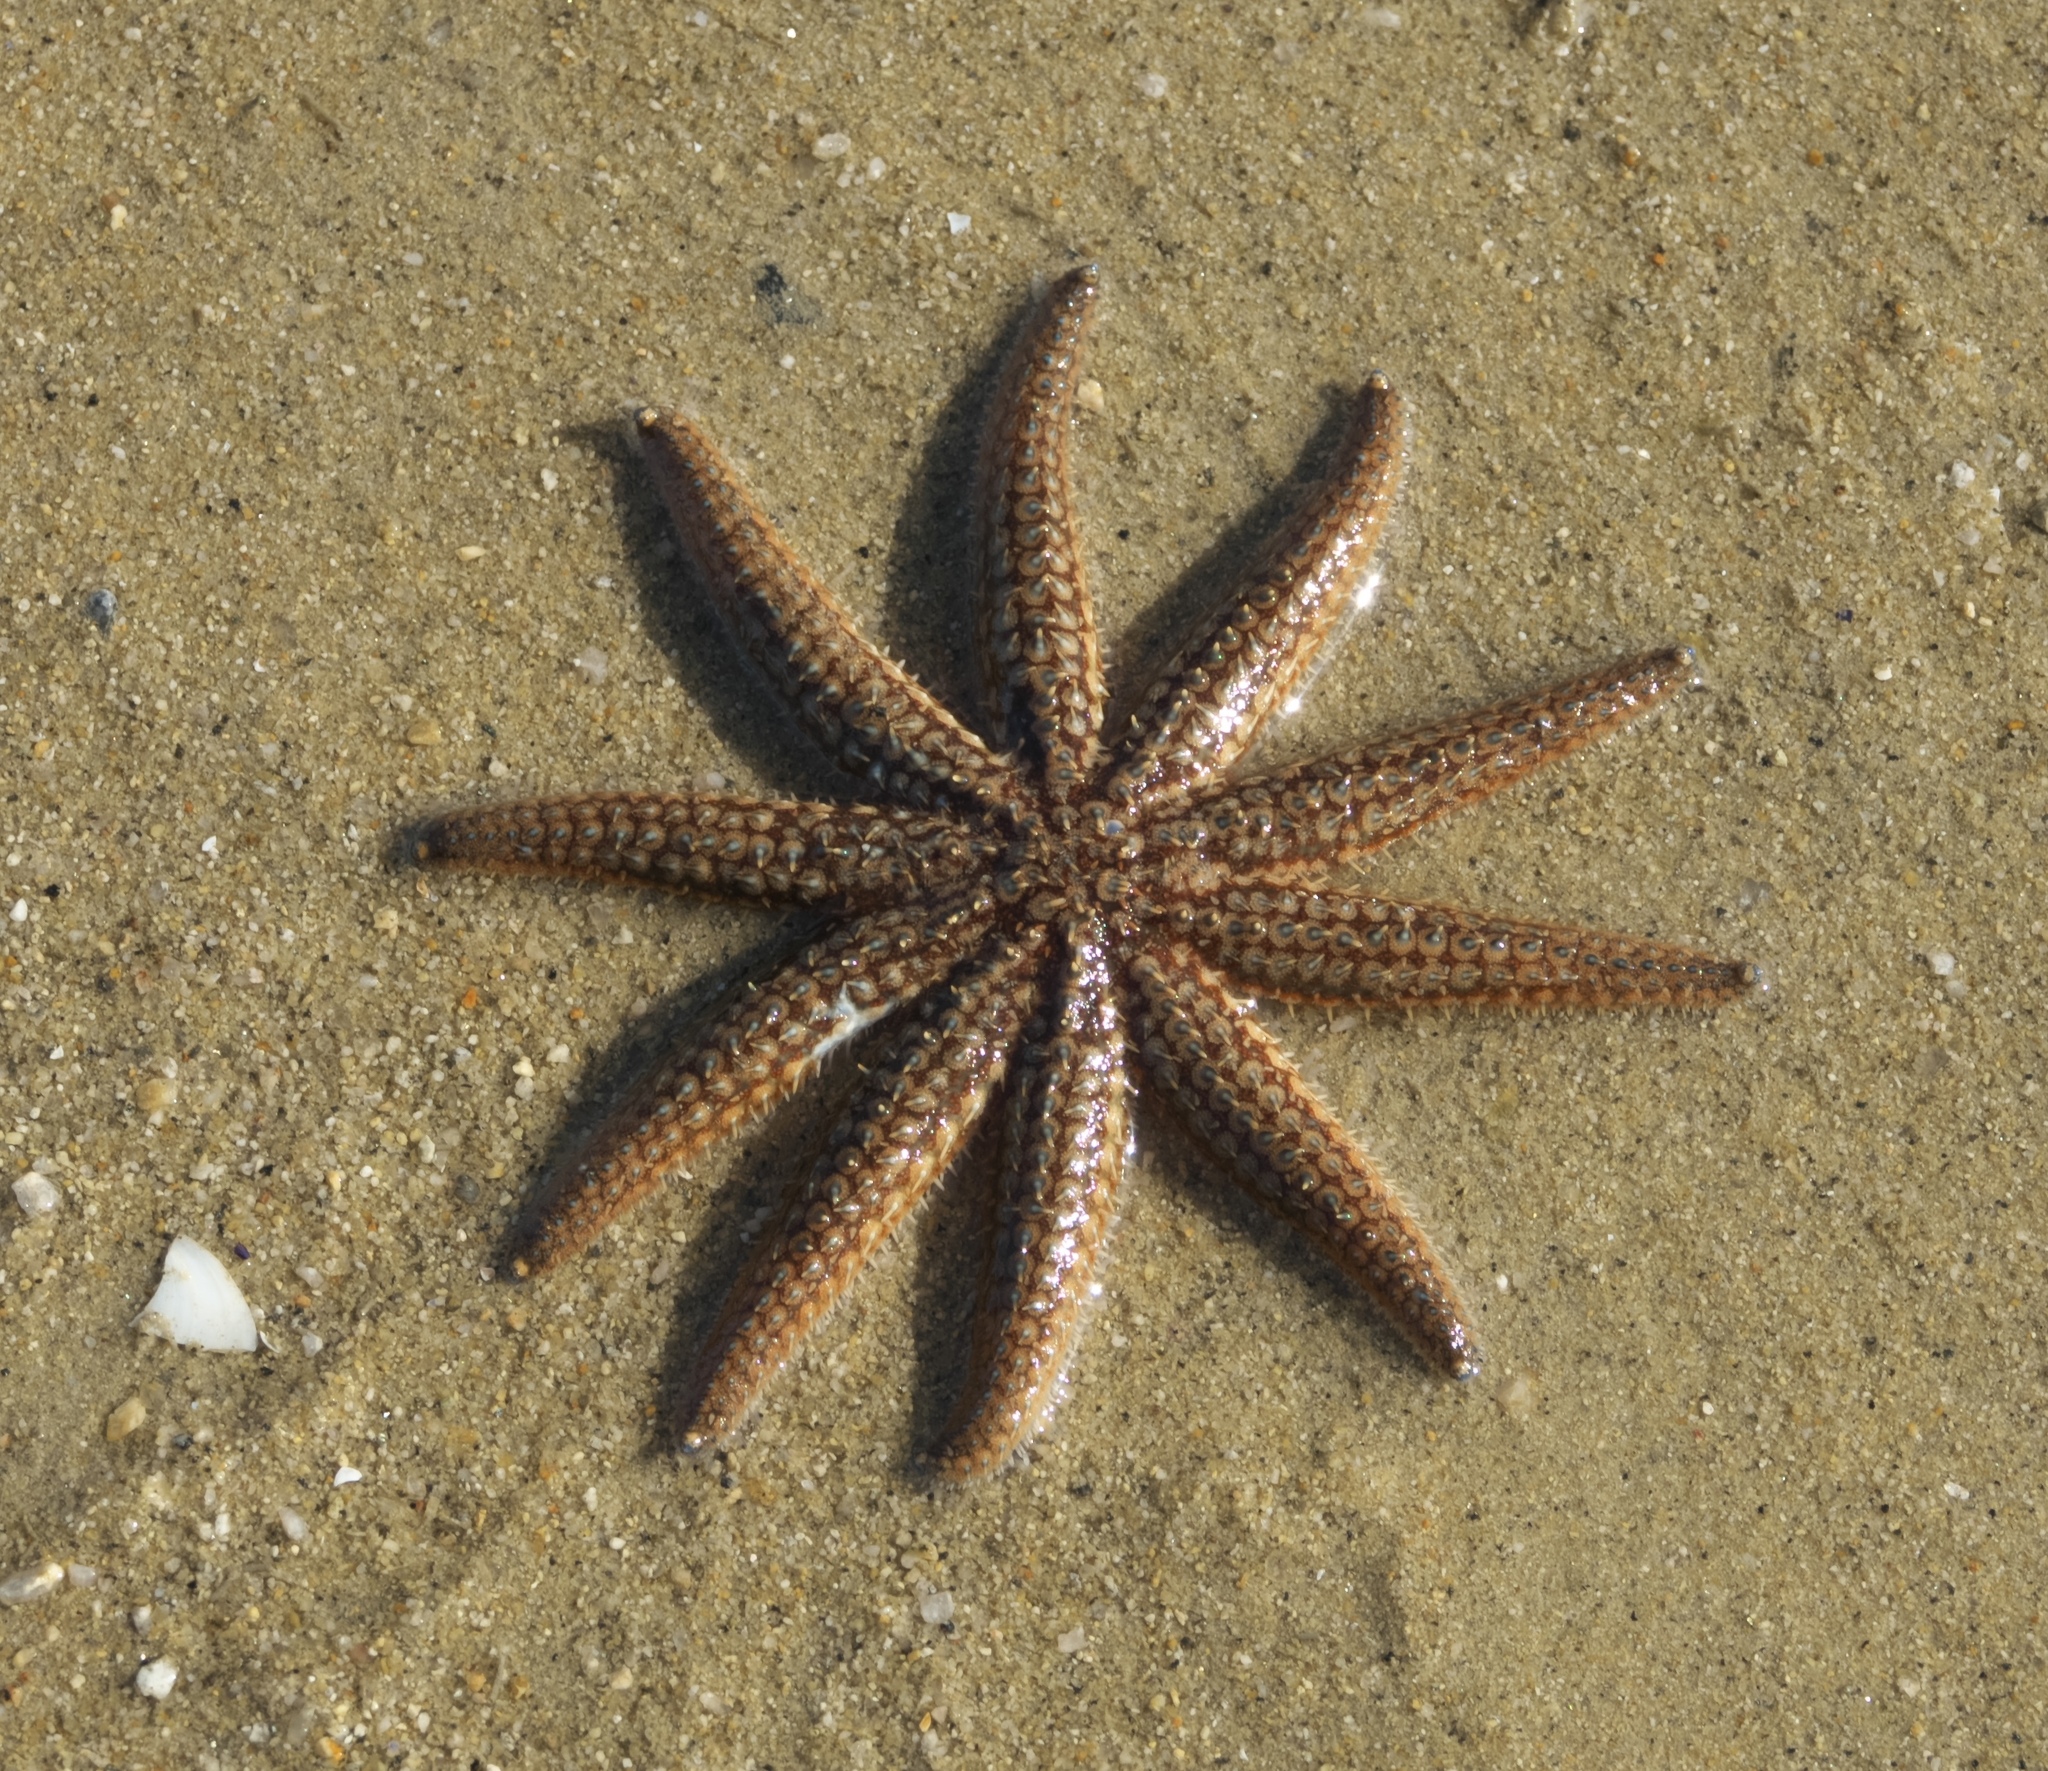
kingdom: Animalia
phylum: Echinodermata
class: Asteroidea
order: Forcipulatida
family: Asteriidae
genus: Coscinasterias
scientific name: Coscinasterias muricata
